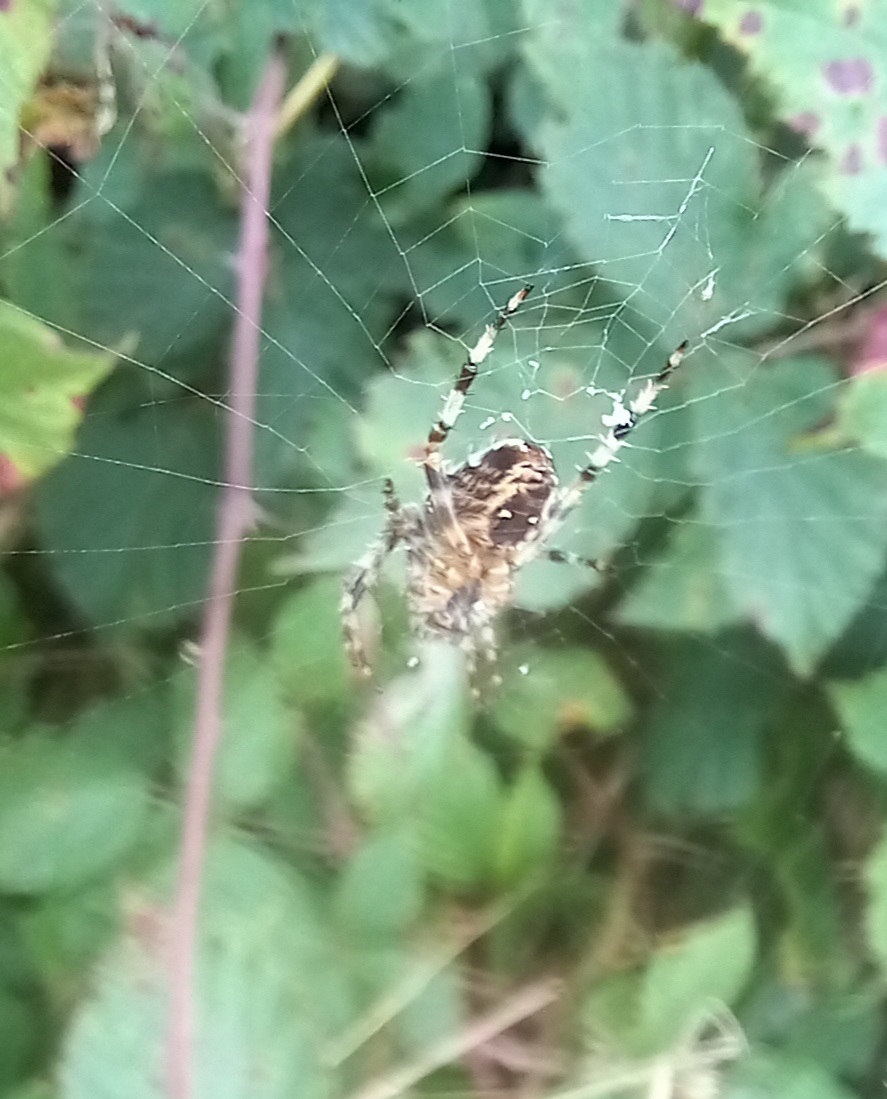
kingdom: Animalia
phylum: Arthropoda
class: Arachnida
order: Araneae
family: Araneidae
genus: Araneus
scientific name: Araneus diadematus
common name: Cross orbweaver
